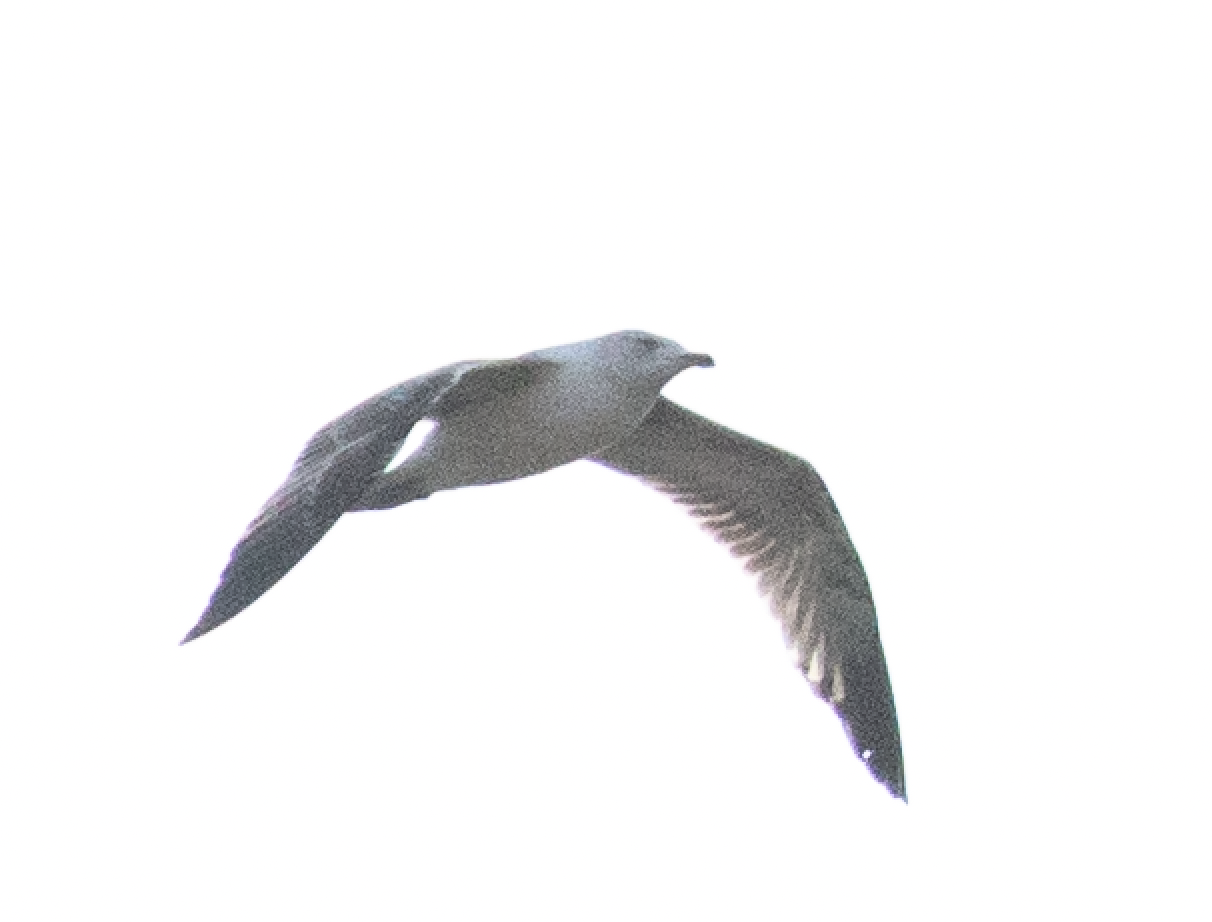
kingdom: Animalia
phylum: Chordata
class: Aves
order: Charadriiformes
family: Laridae
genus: Larus
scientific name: Larus michahellis
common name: Yellow-legged gull
